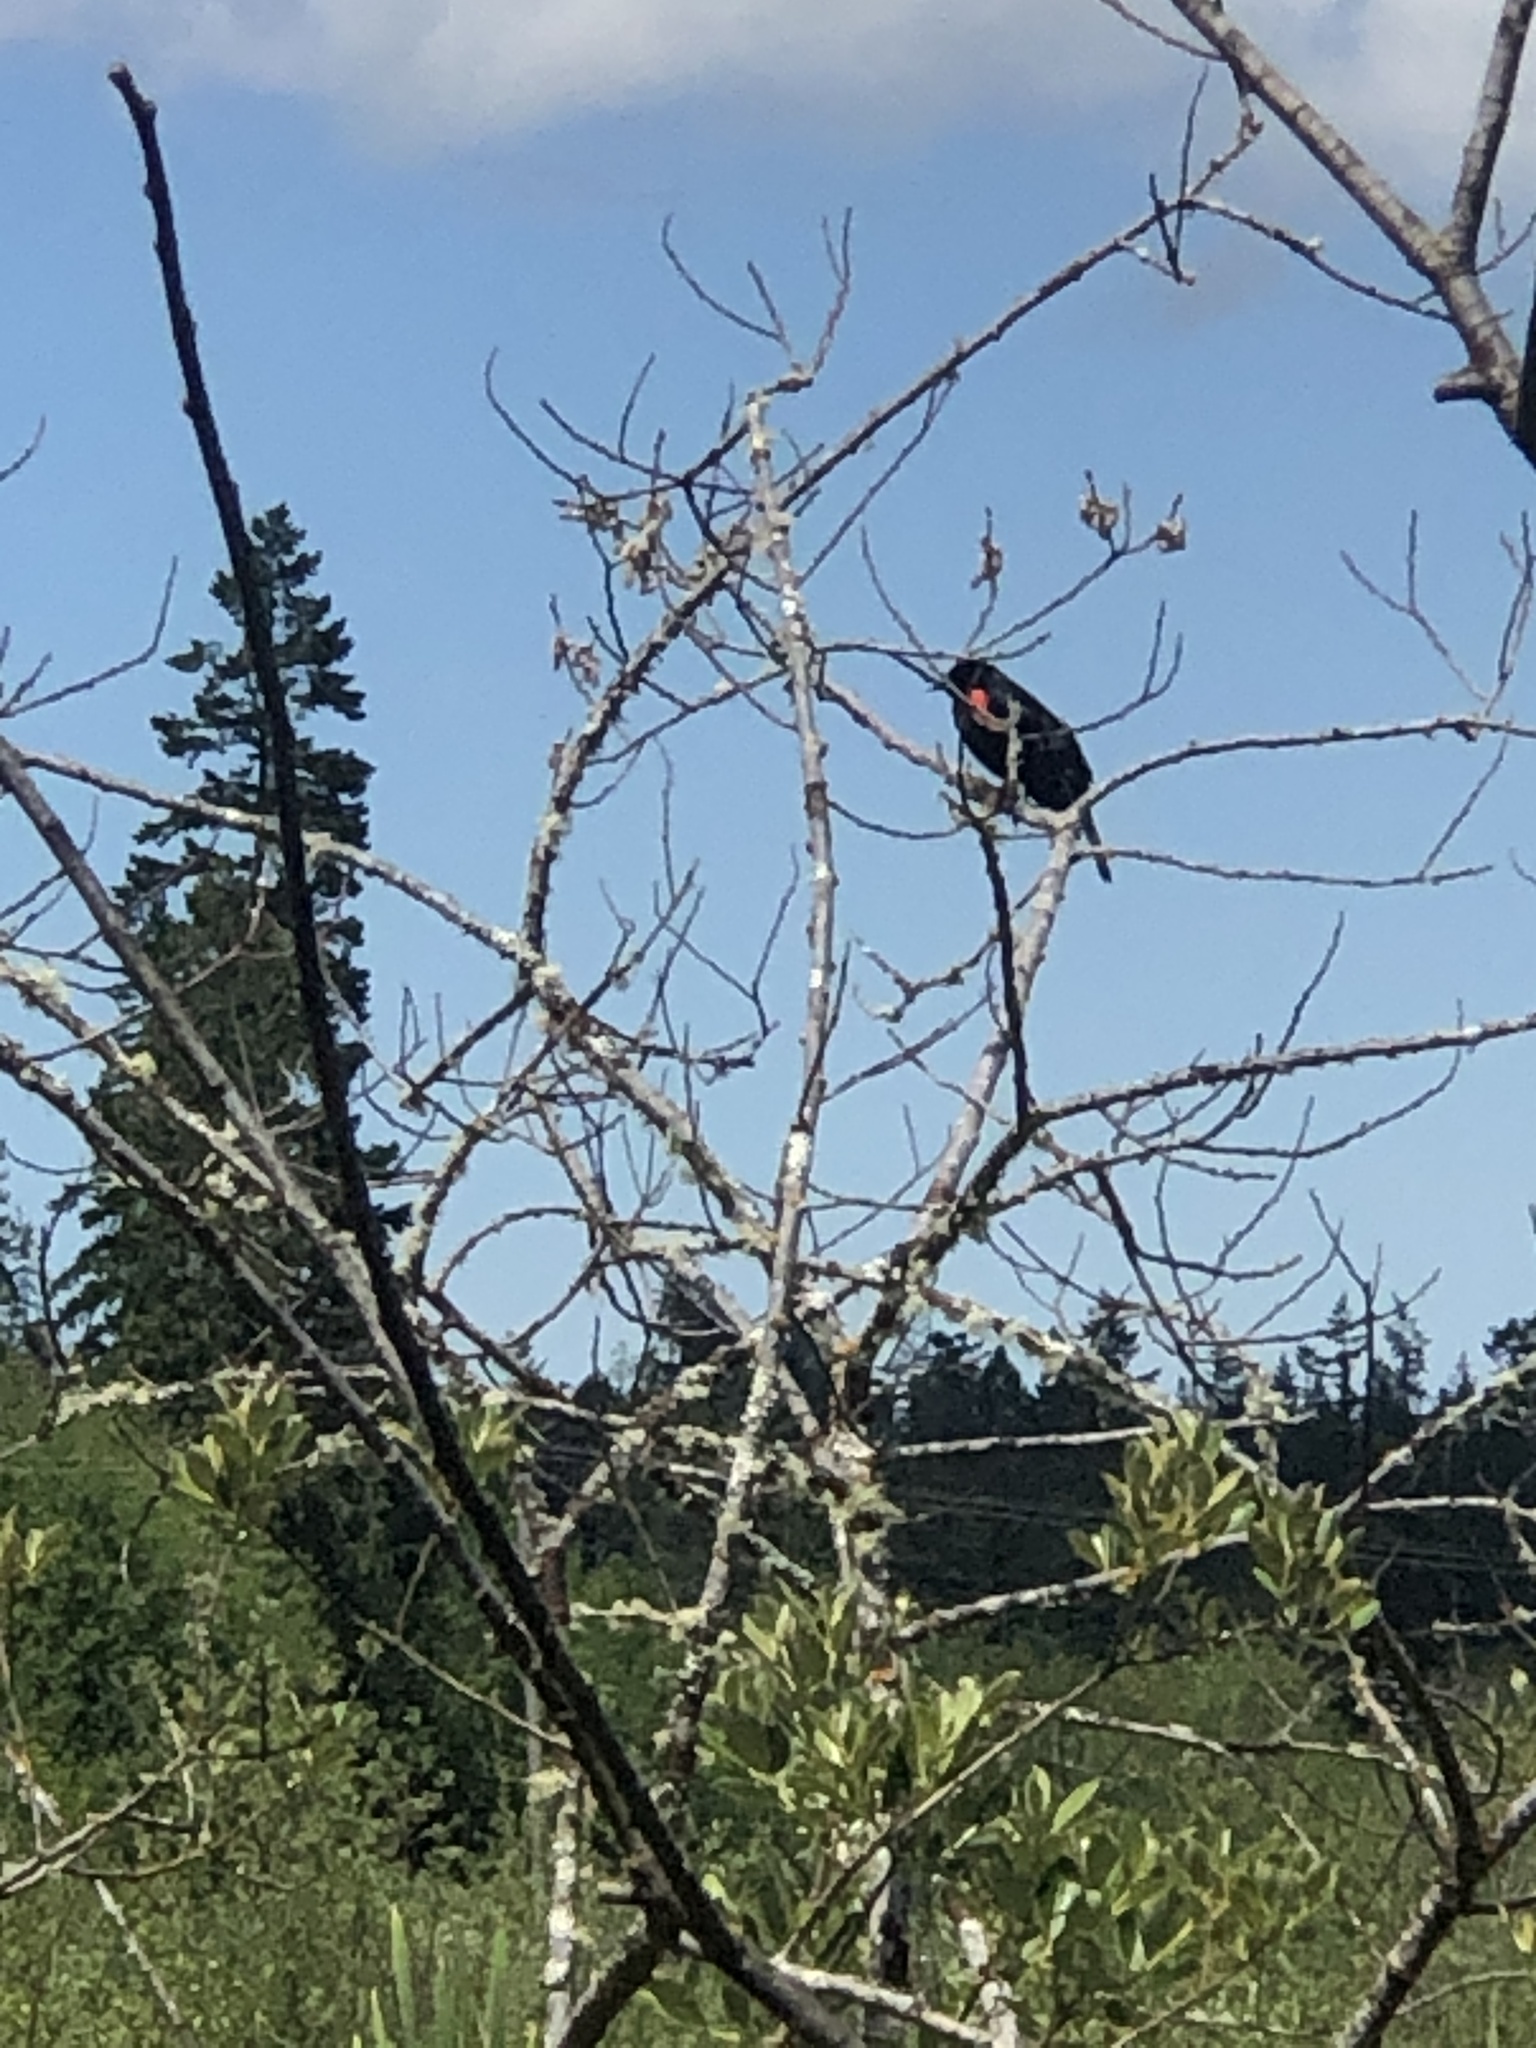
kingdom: Animalia
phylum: Chordata
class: Aves
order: Passeriformes
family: Icteridae
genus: Agelaius
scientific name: Agelaius phoeniceus
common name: Red-winged blackbird
